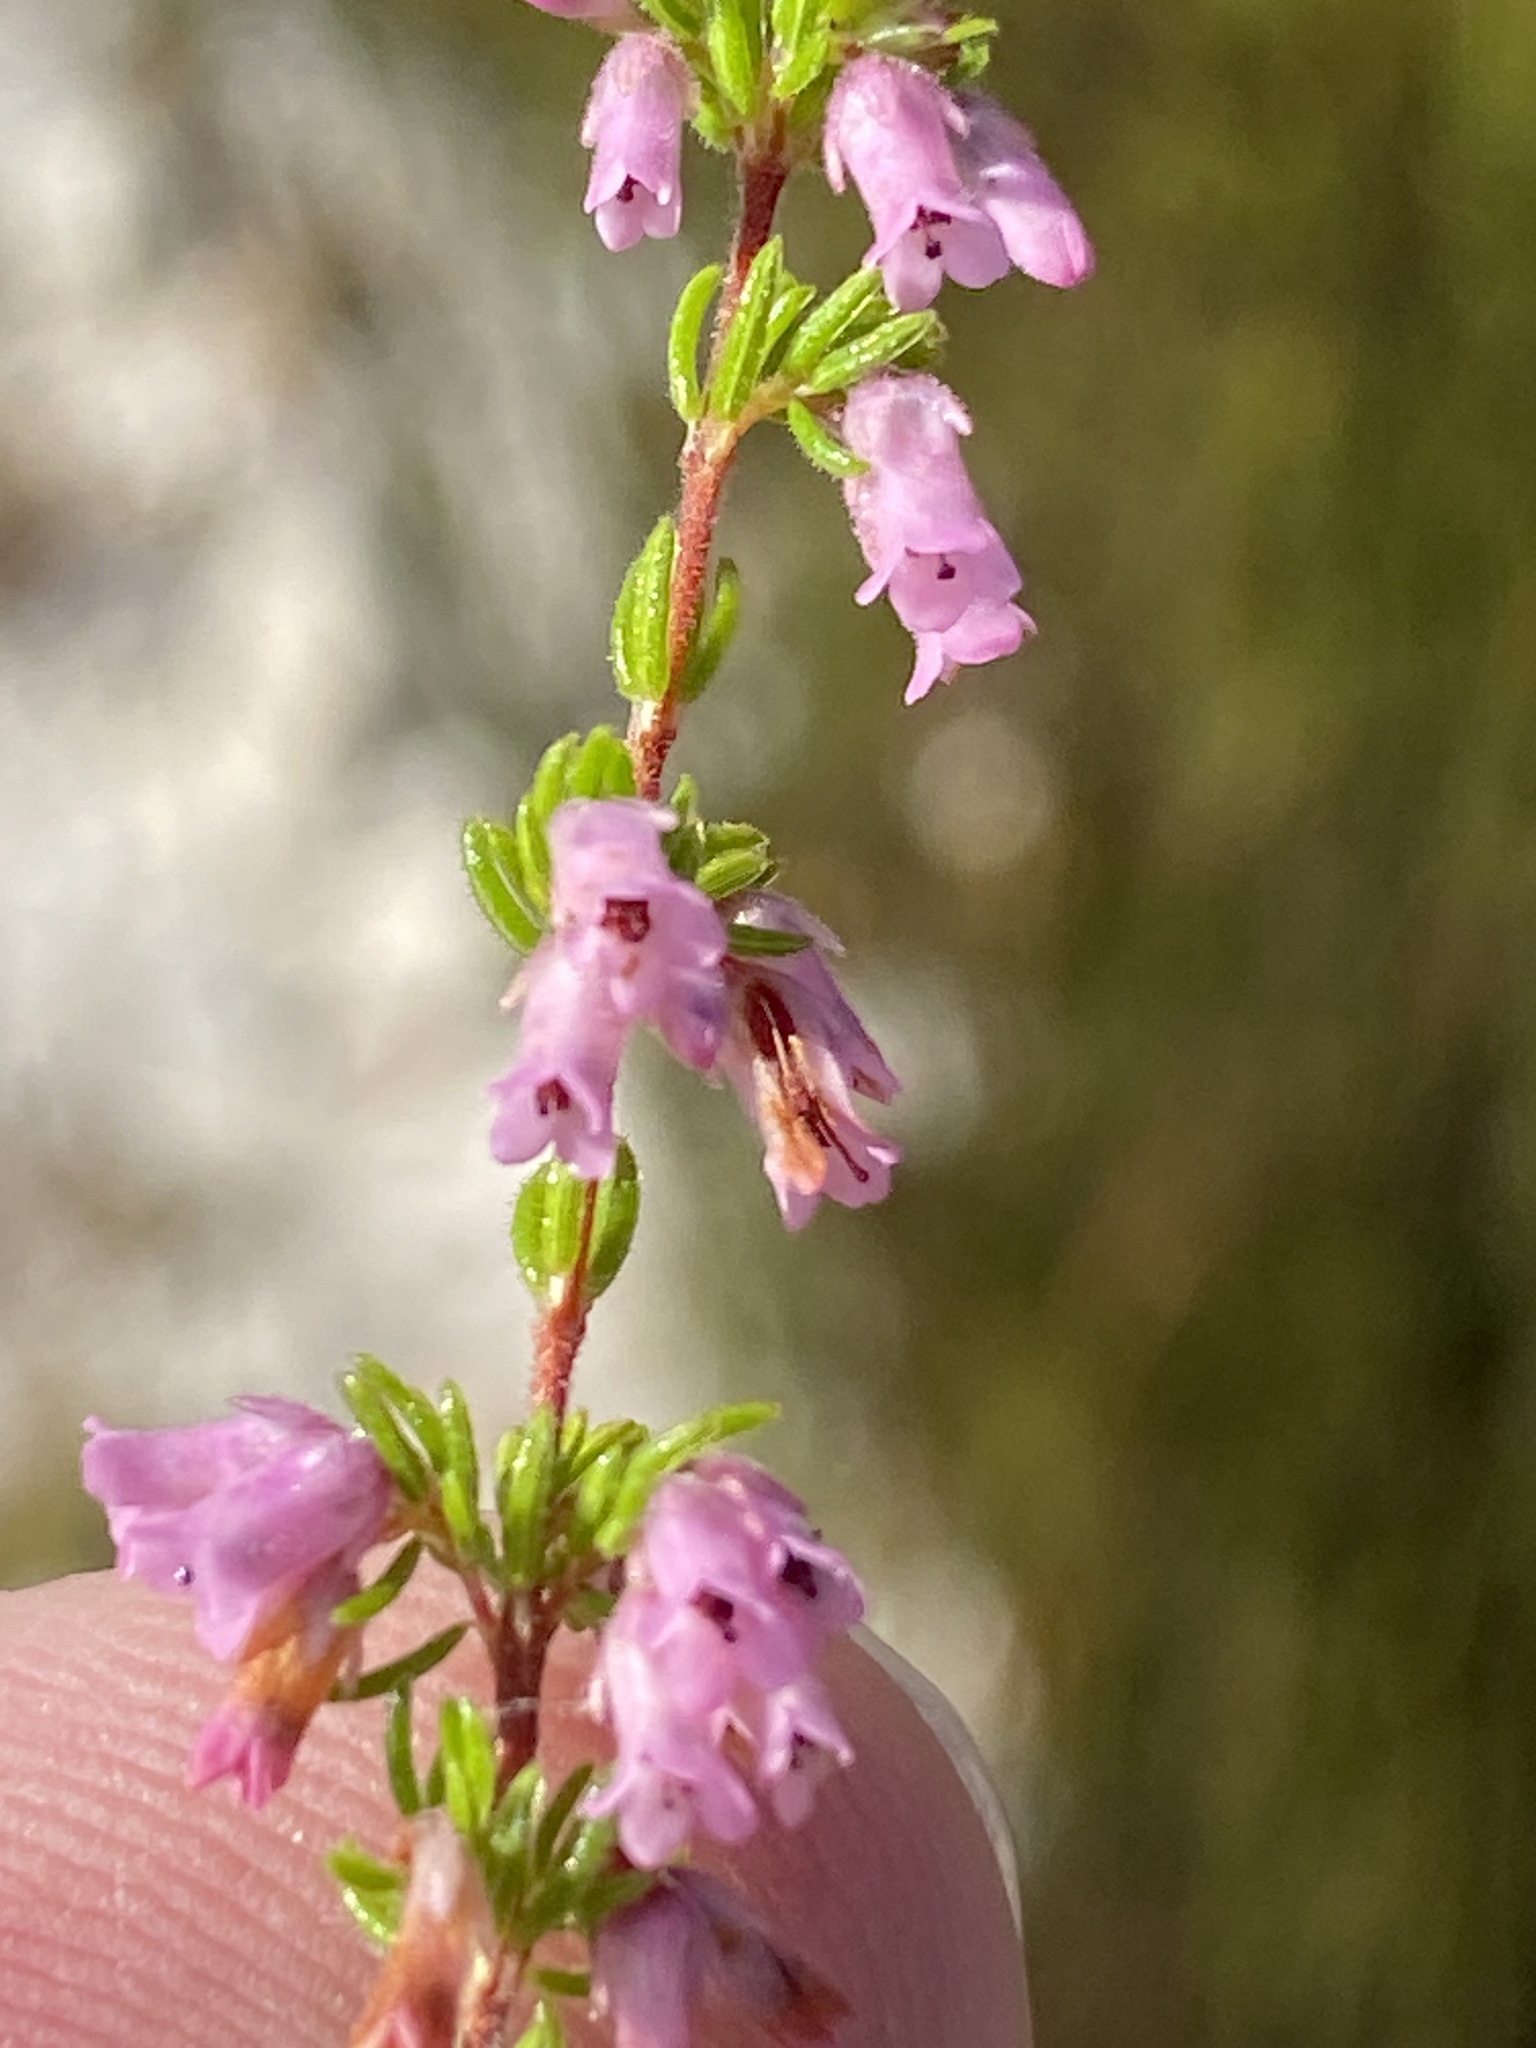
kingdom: Plantae
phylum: Tracheophyta
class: Magnoliopsida
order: Ericales
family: Ericaceae
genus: Erica
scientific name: Erica intervallaris
